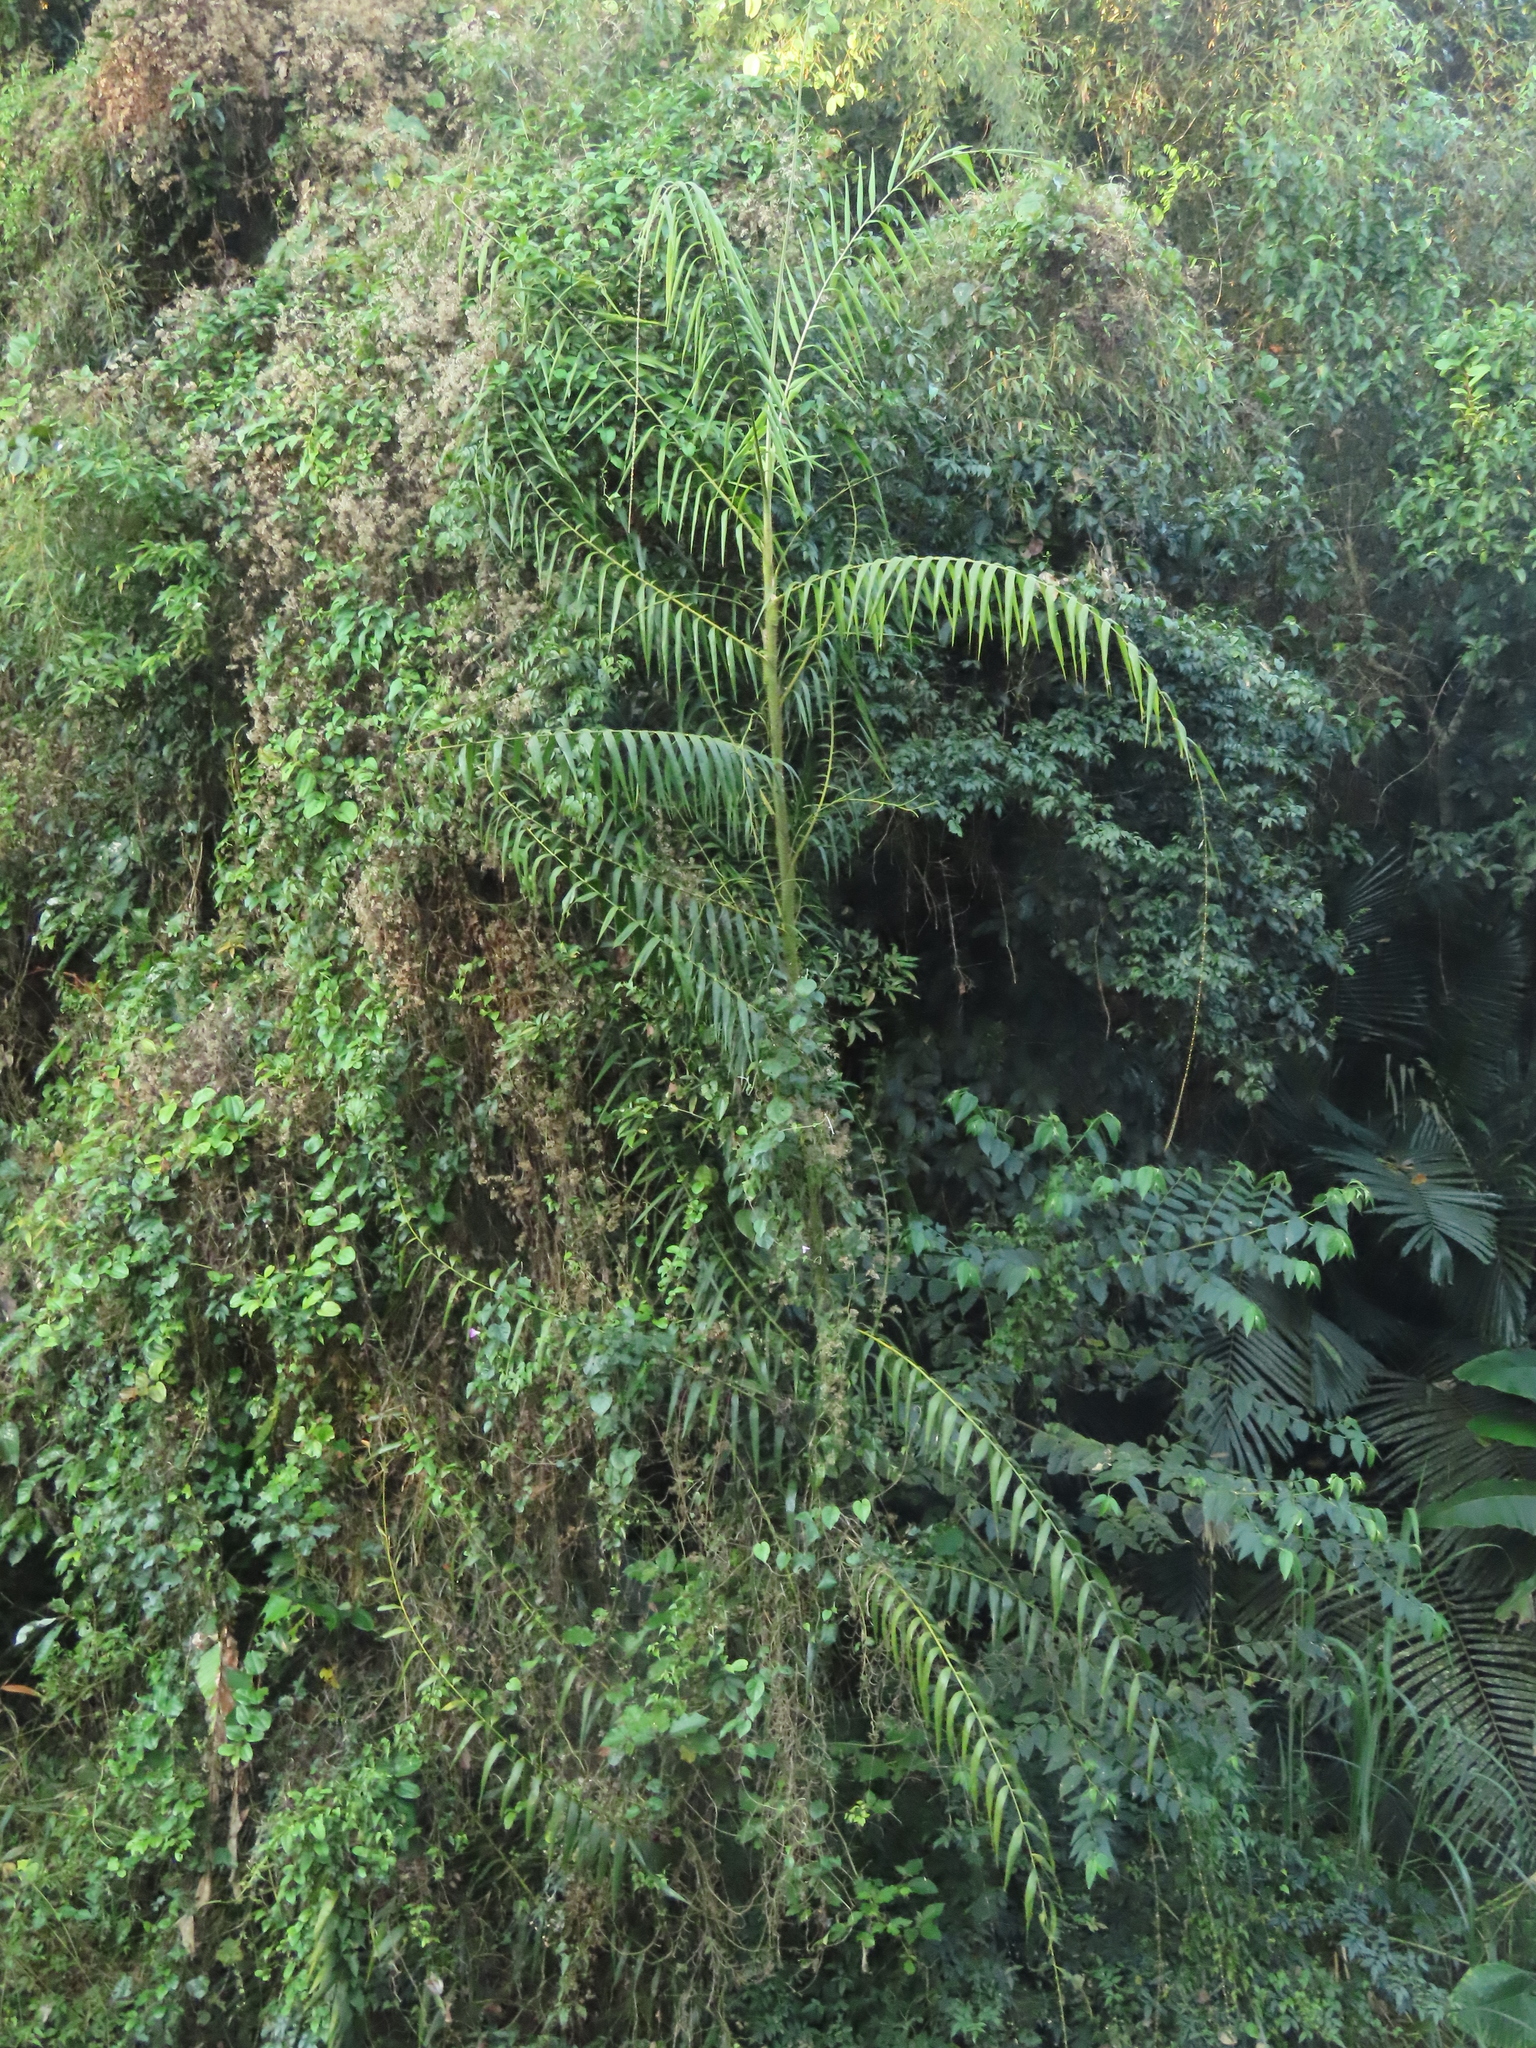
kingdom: Plantae
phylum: Tracheophyta
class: Liliopsida
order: Arecales
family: Arecaceae
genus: Calamus
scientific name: Calamus formosanus
